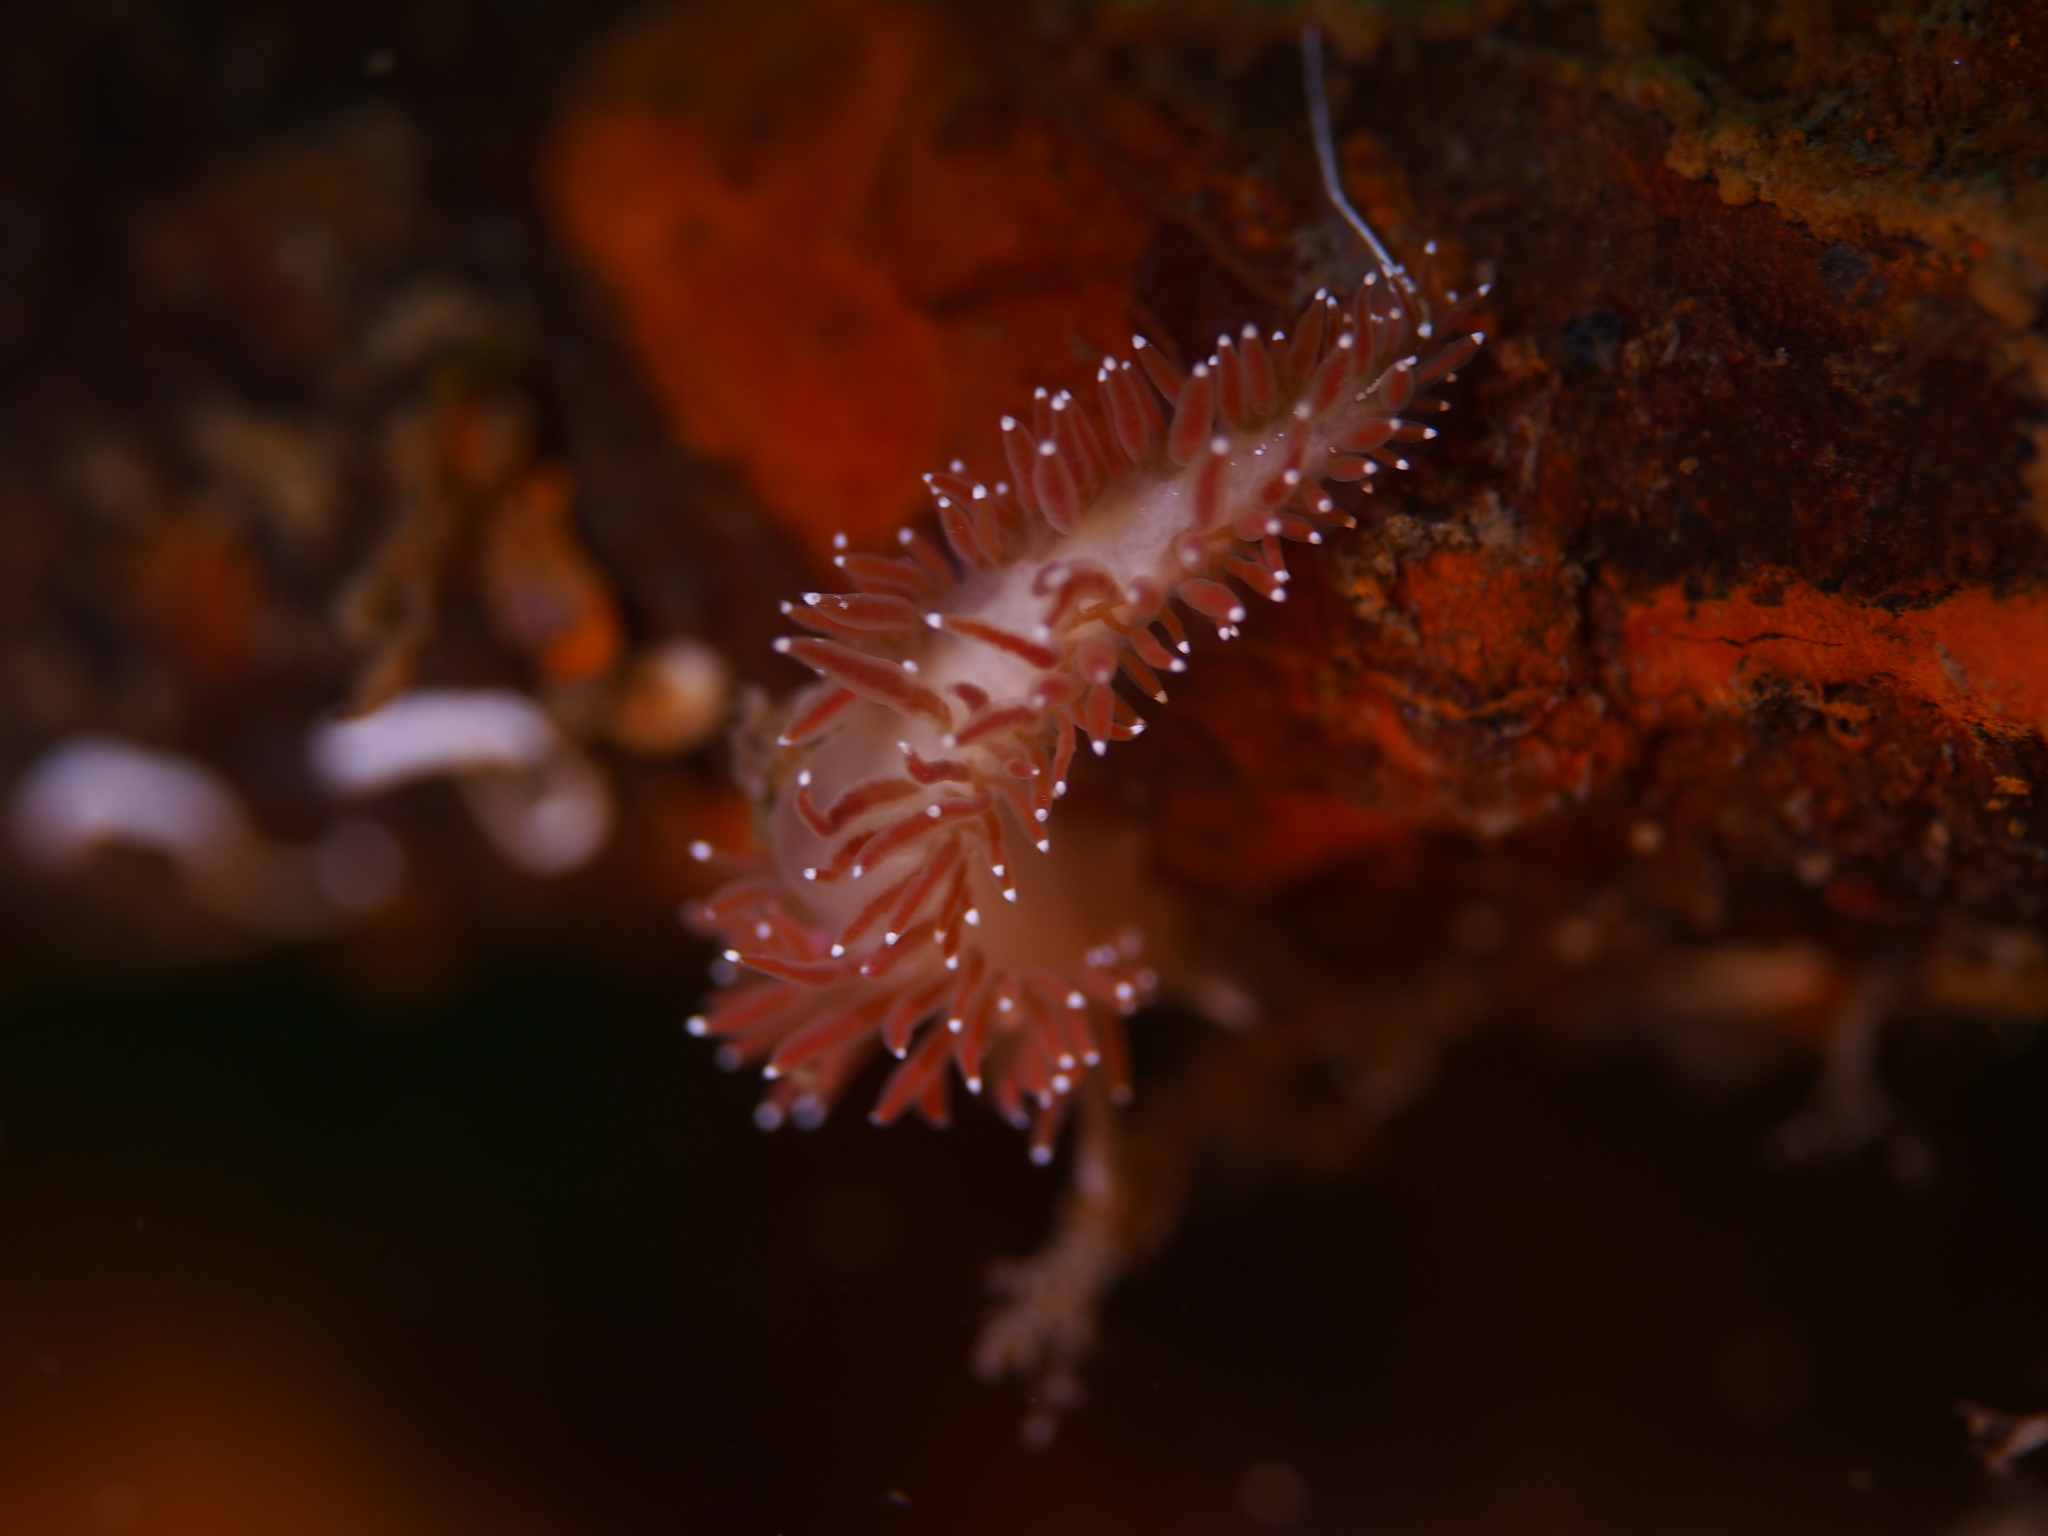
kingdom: Animalia
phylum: Mollusca
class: Gastropoda
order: Nudibranchia
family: Coryphellidae
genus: Coryphella
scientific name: Coryphella verrucosa
